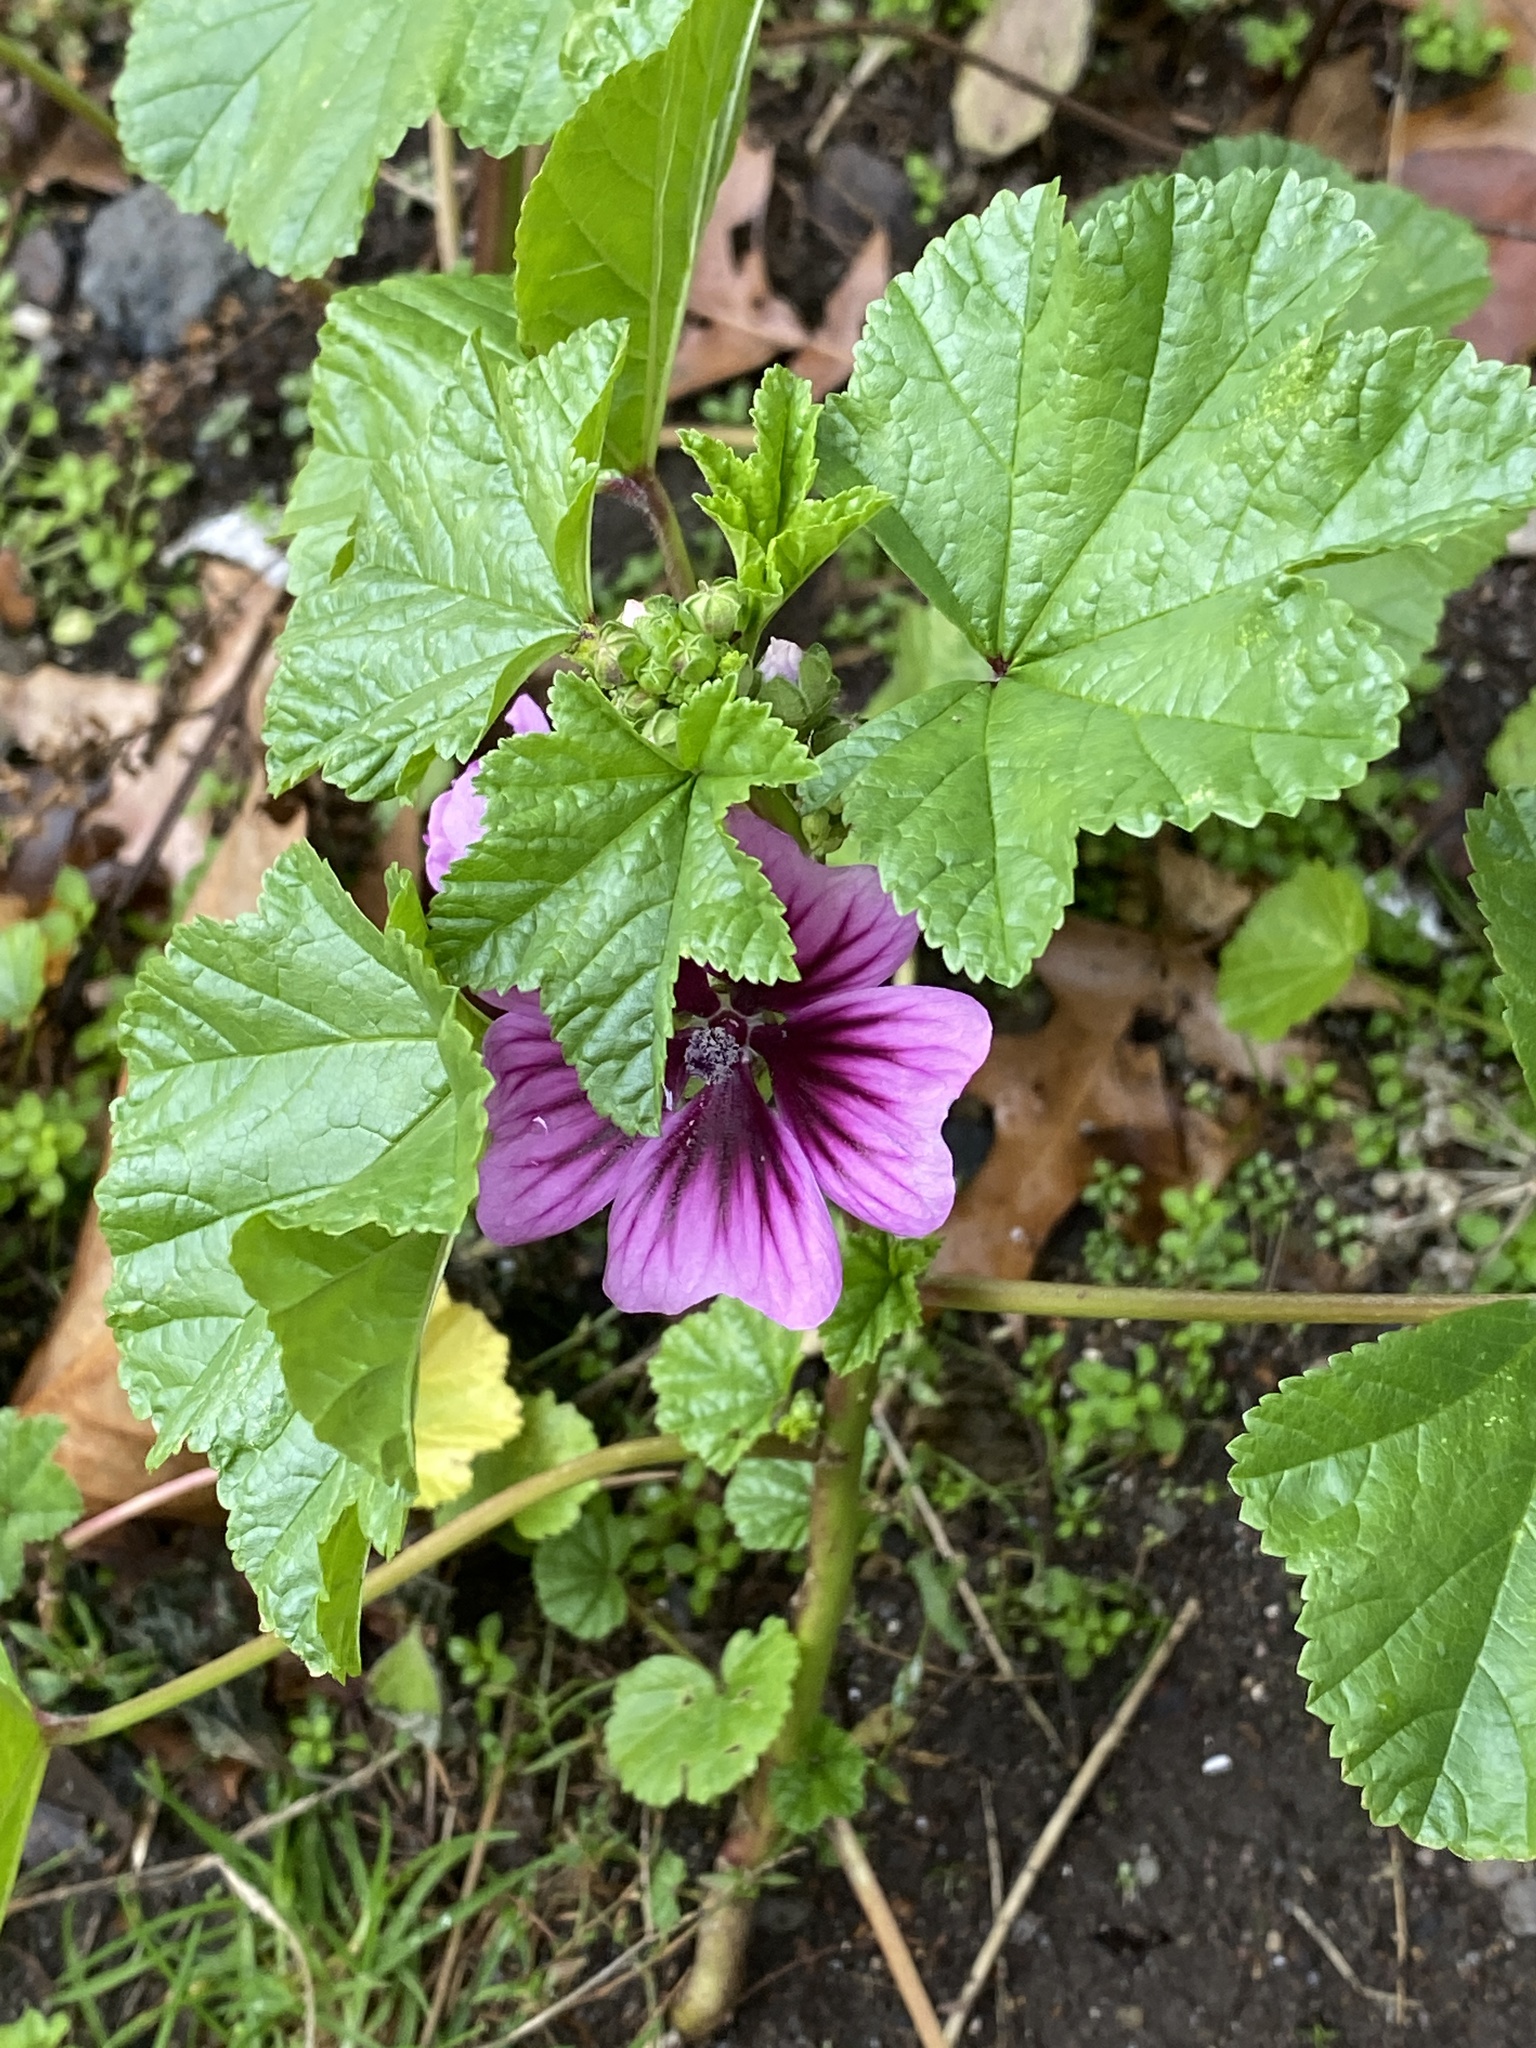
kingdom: Plantae
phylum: Tracheophyta
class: Magnoliopsida
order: Malvales
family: Malvaceae
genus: Malva
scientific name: Malva sylvestris
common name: Common mallow
